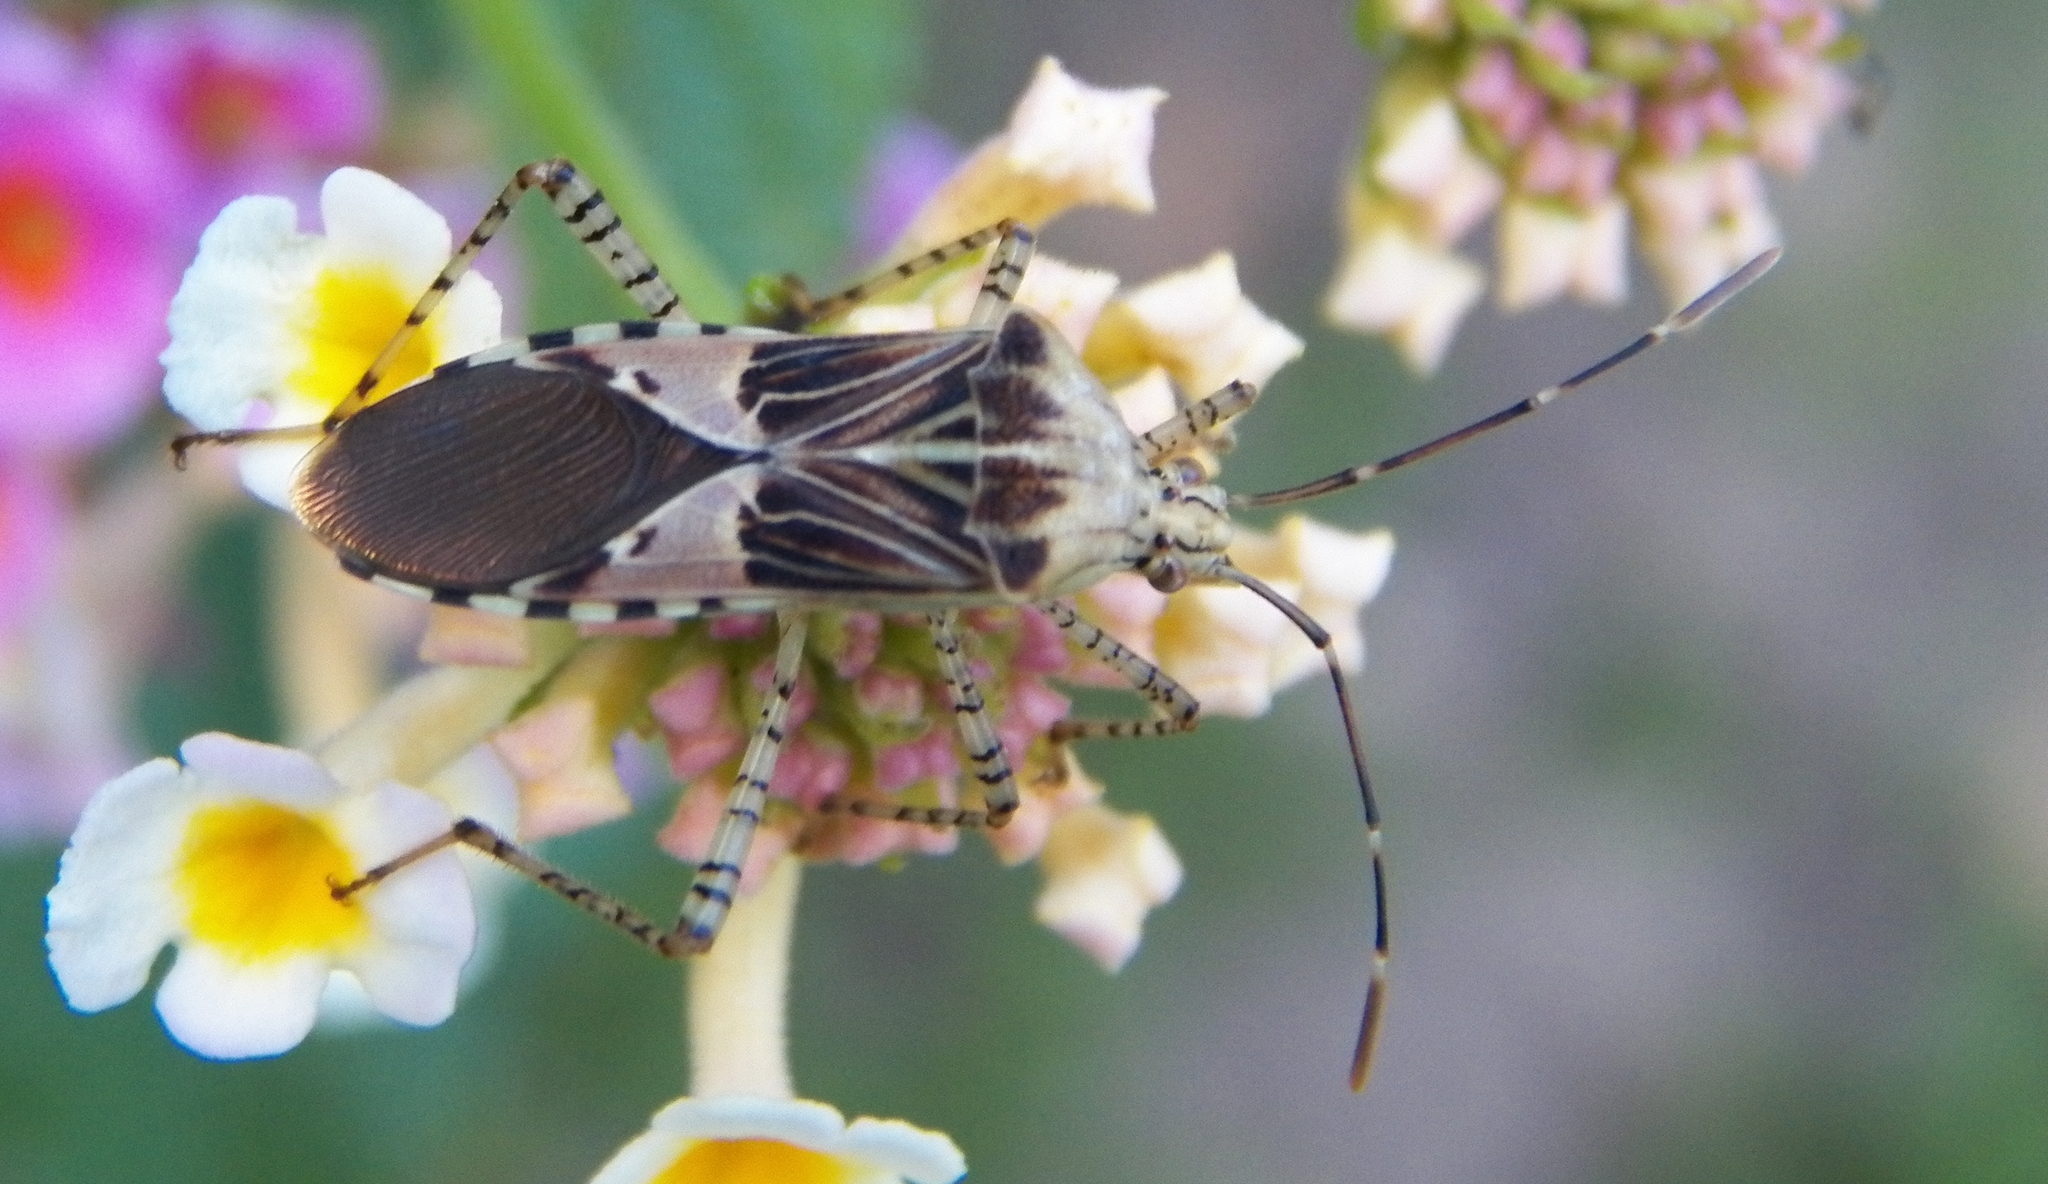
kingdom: Animalia
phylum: Arthropoda
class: Insecta
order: Hemiptera
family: Coreidae
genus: Hypselonotus
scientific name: Hypselonotus punctiventris
